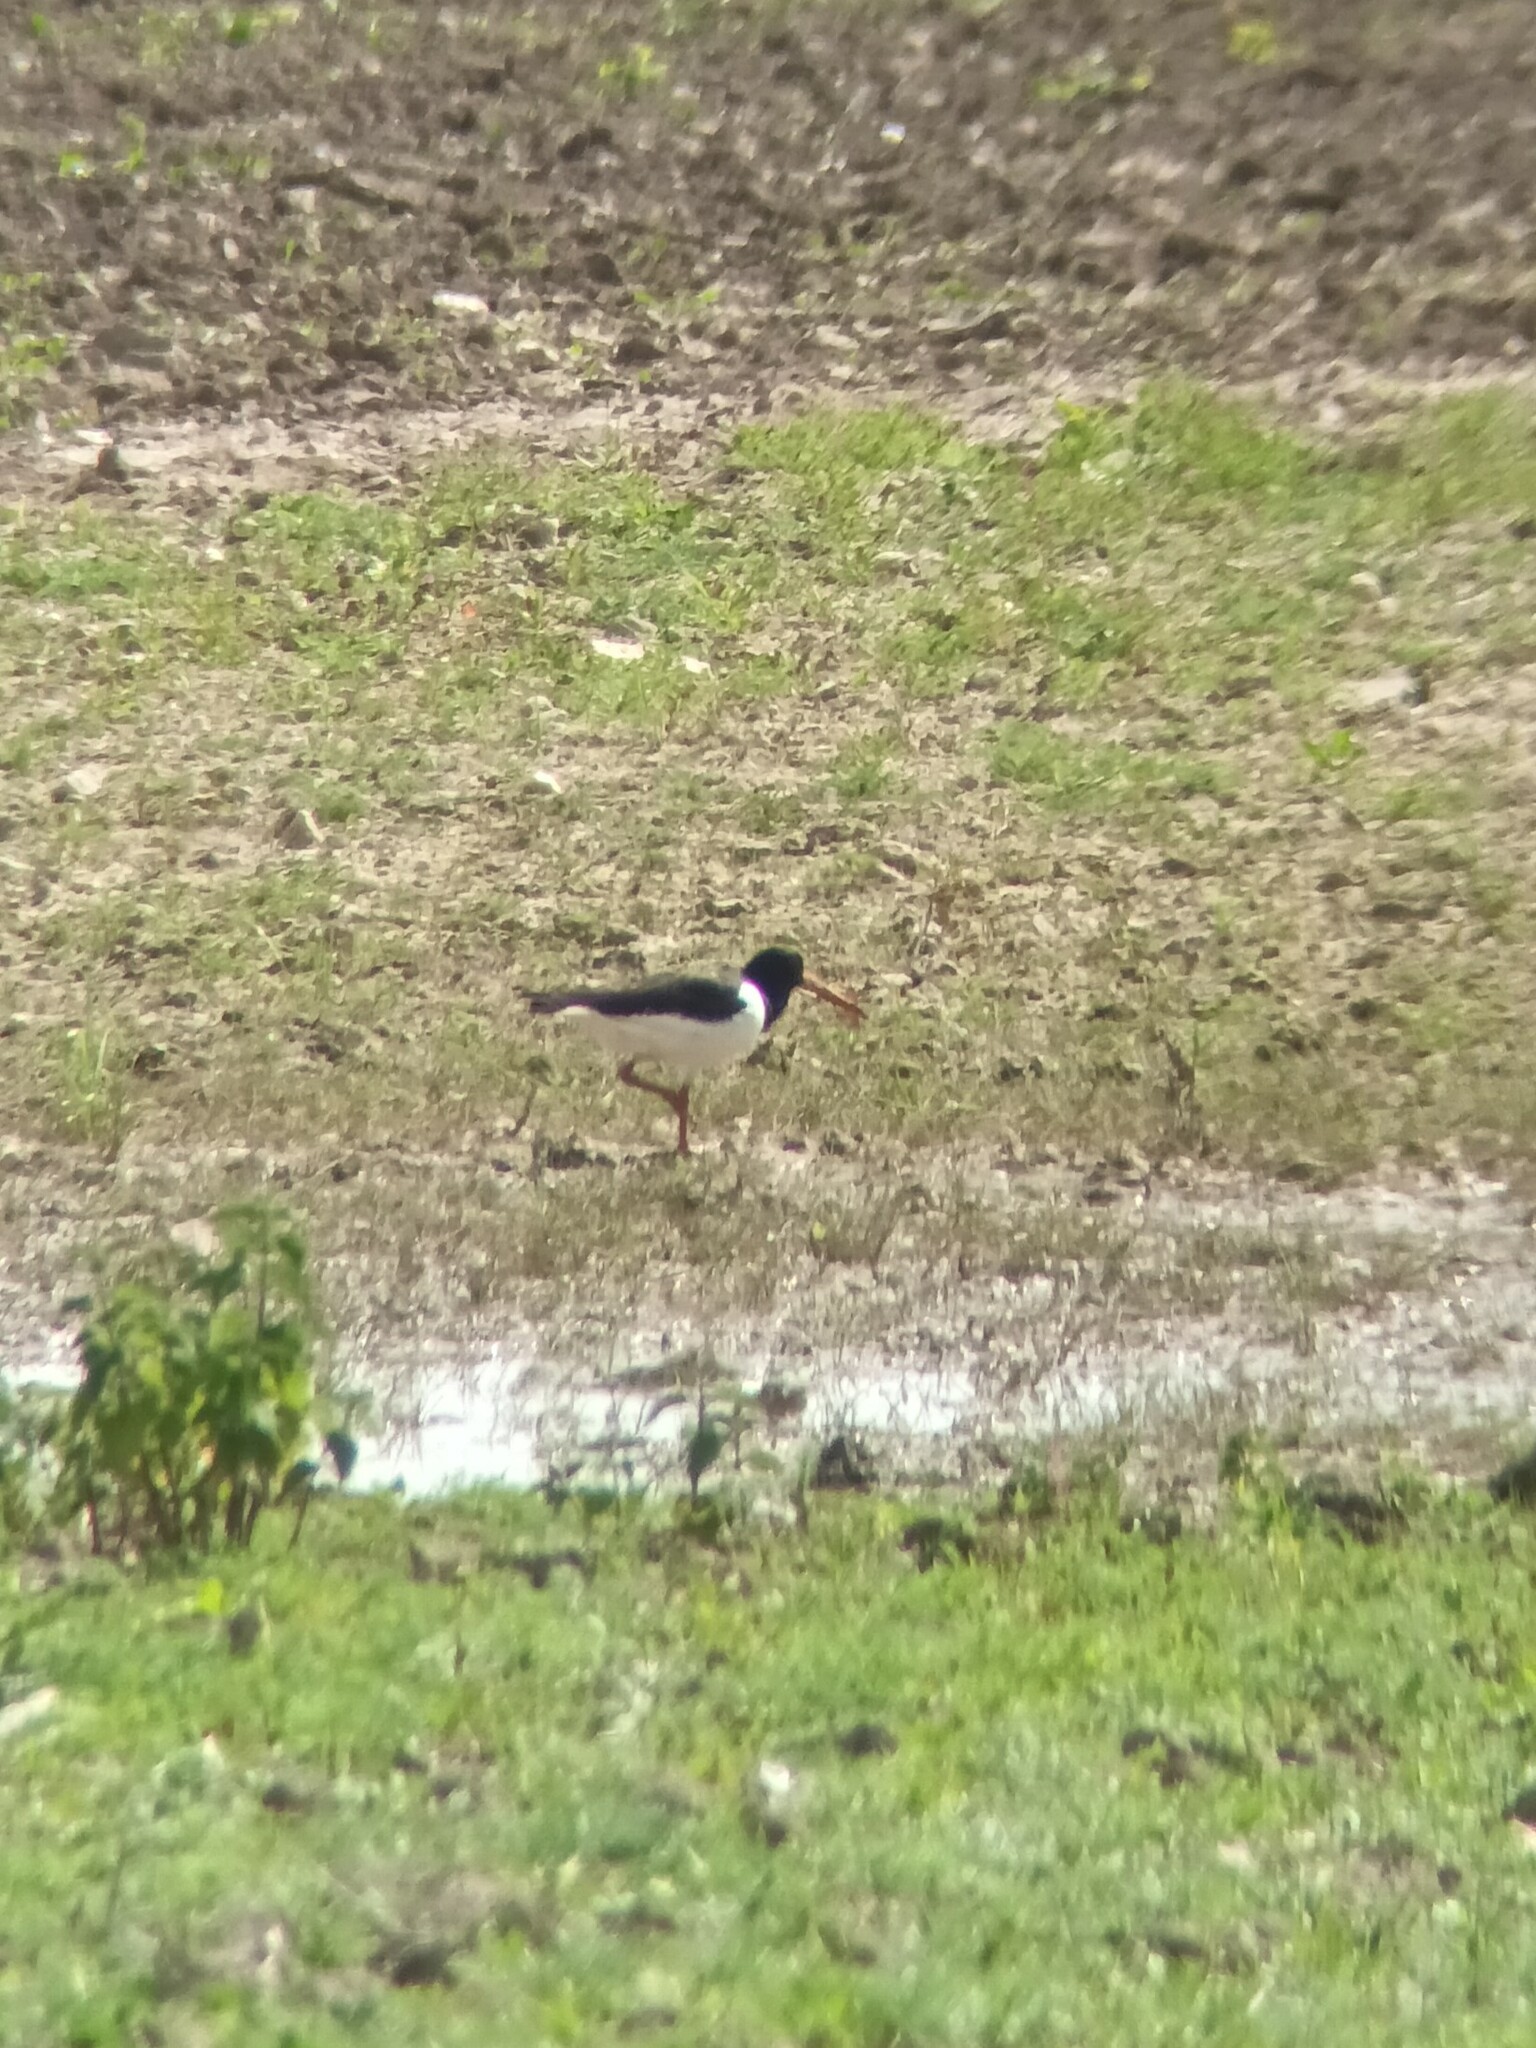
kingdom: Animalia
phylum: Chordata
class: Aves
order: Charadriiformes
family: Haematopodidae
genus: Haematopus
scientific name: Haematopus ostralegus
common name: Eurasian oystercatcher
